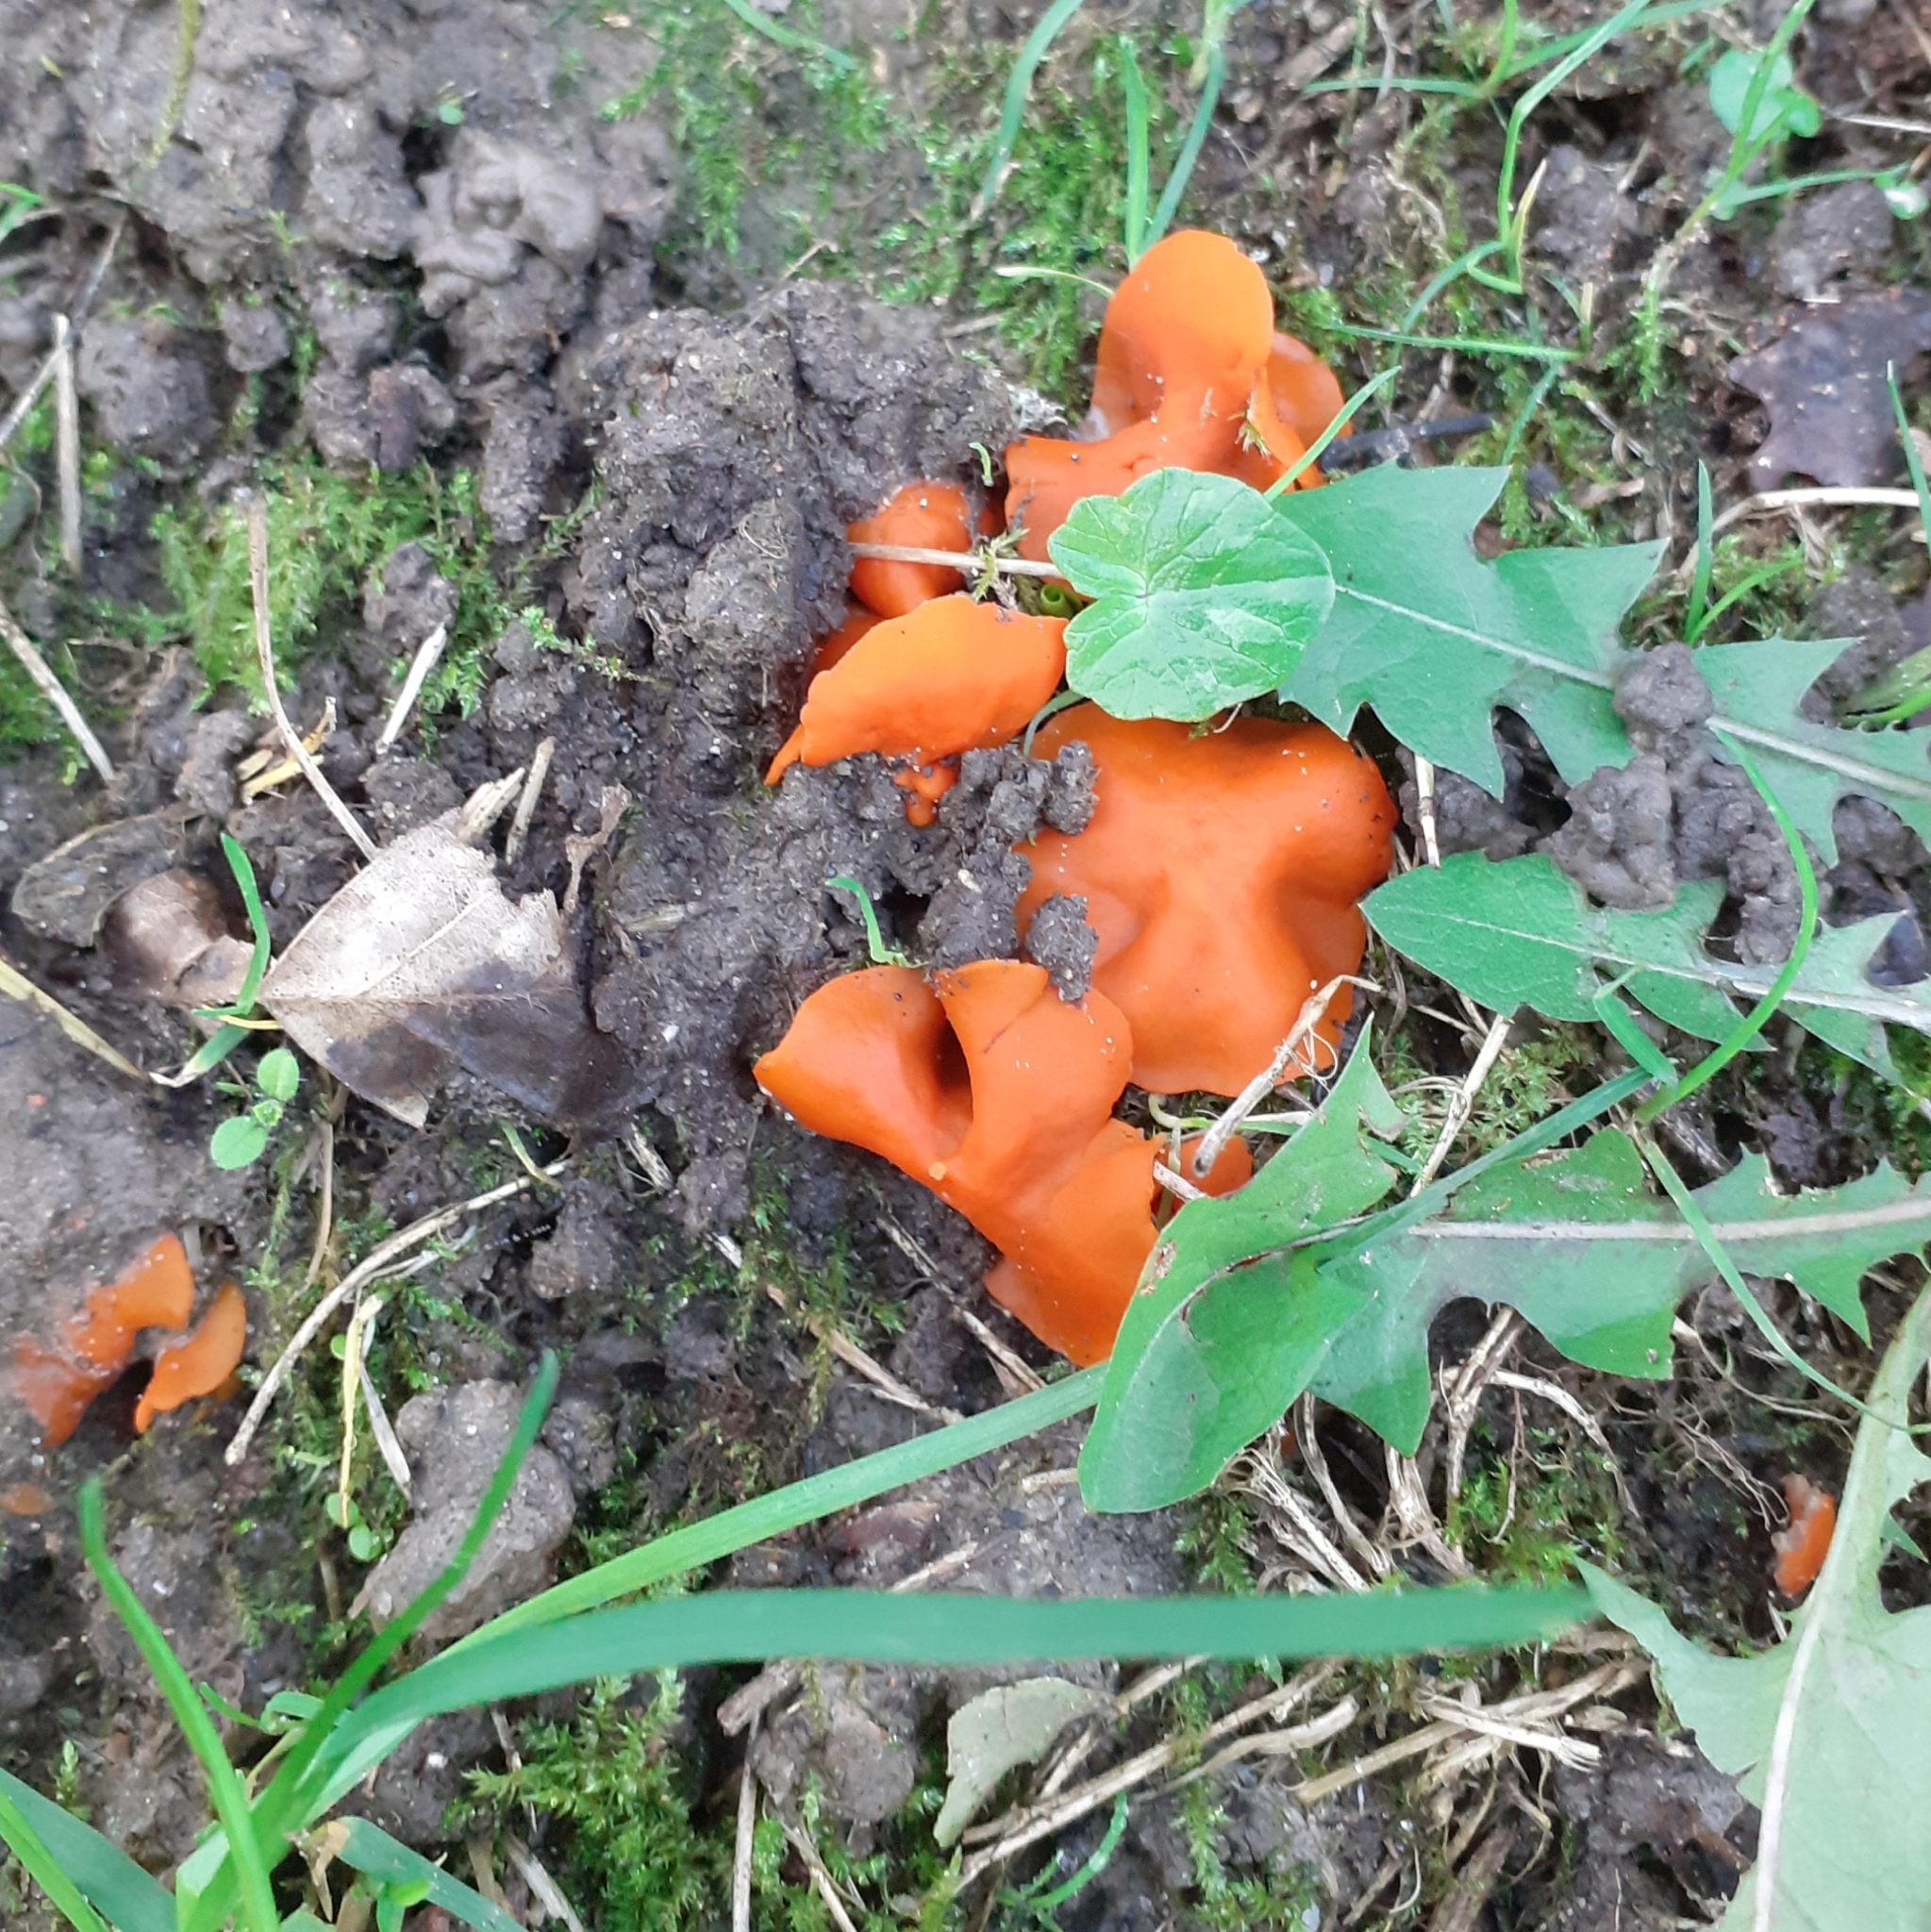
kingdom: Fungi
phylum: Ascomycota
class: Pezizomycetes
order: Pezizales
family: Pyronemataceae
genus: Aleuria
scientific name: Aleuria aurantia
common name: Orange peel fungus
